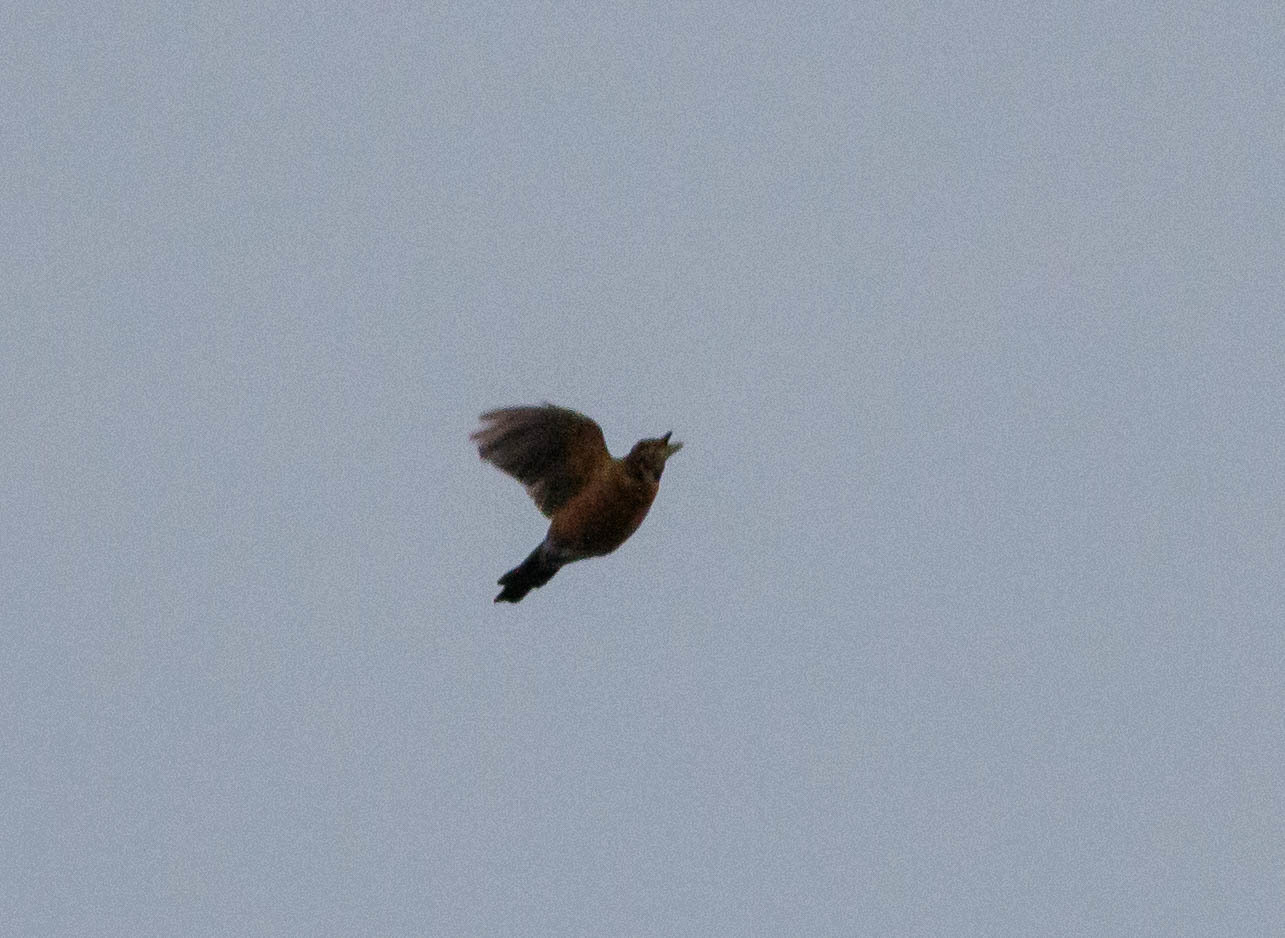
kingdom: Animalia
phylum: Chordata
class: Aves
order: Passeriformes
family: Turdidae
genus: Turdus
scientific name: Turdus migratorius
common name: American robin
